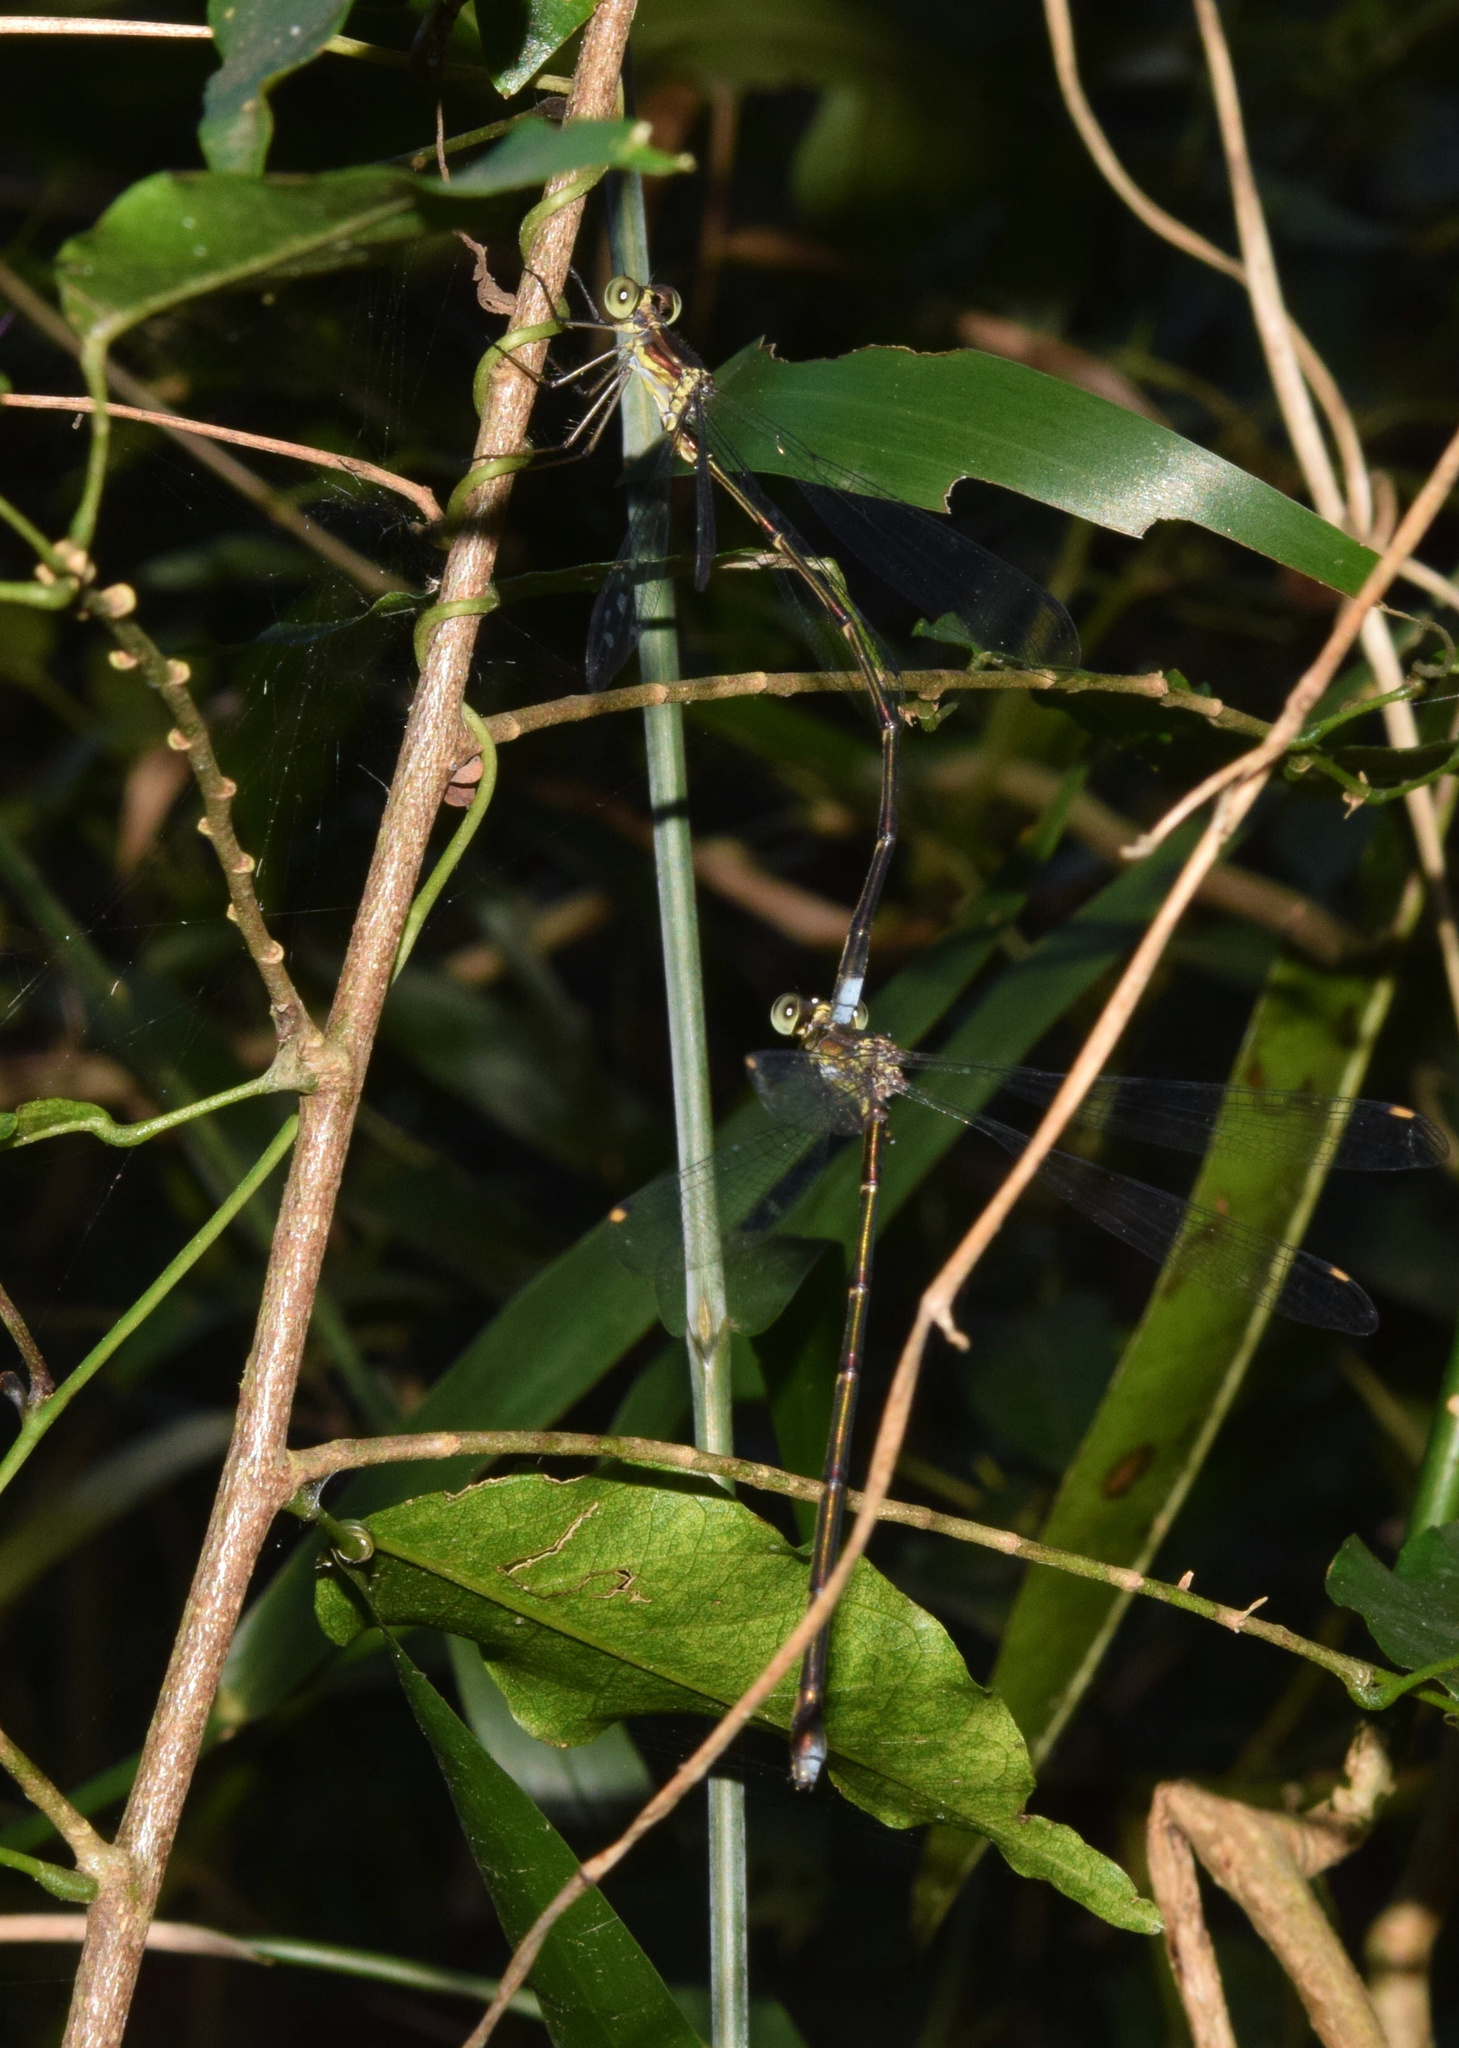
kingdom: Animalia
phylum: Arthropoda
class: Insecta
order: Odonata
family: Synlestidae
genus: Chlorolestes
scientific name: Chlorolestes tessellatus
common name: Forest malachite
